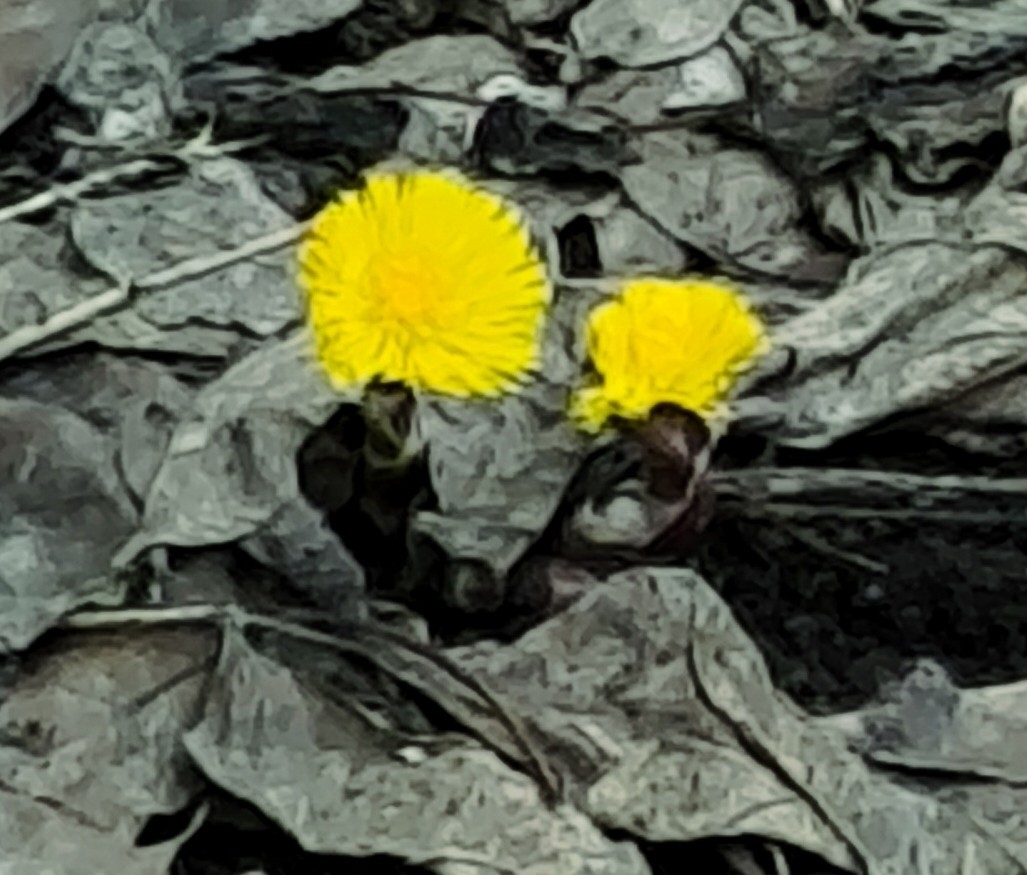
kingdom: Plantae
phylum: Tracheophyta
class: Magnoliopsida
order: Asterales
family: Asteraceae
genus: Tussilago
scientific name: Tussilago farfara
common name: Coltsfoot
